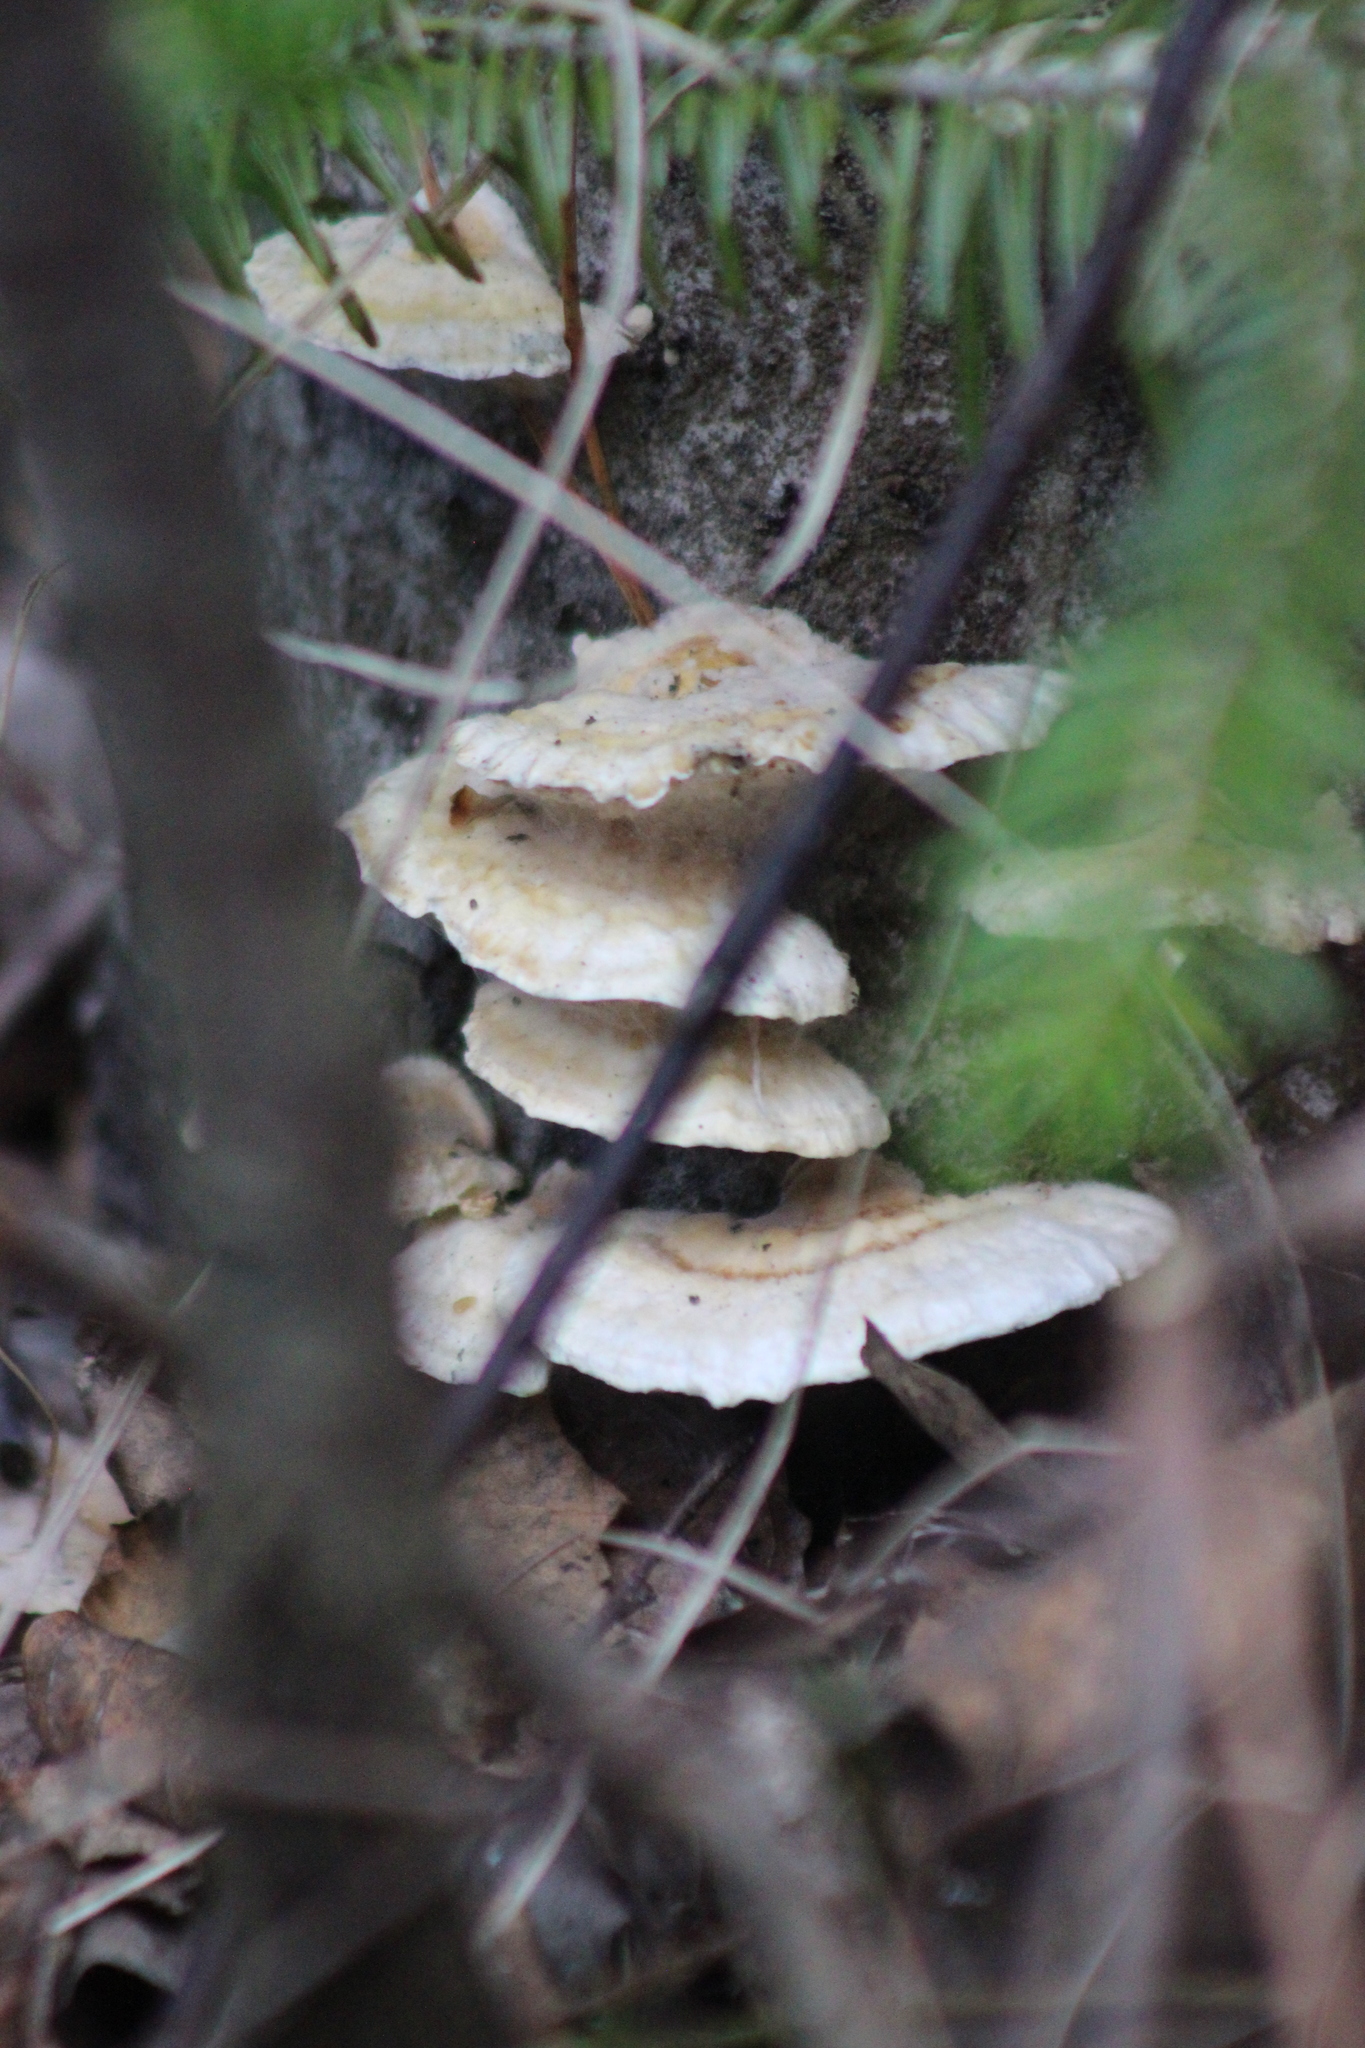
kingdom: Fungi
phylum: Basidiomycota
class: Agaricomycetes
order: Polyporales
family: Polyporaceae
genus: Trametes
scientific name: Trametes ochracea
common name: Ochre bracket
